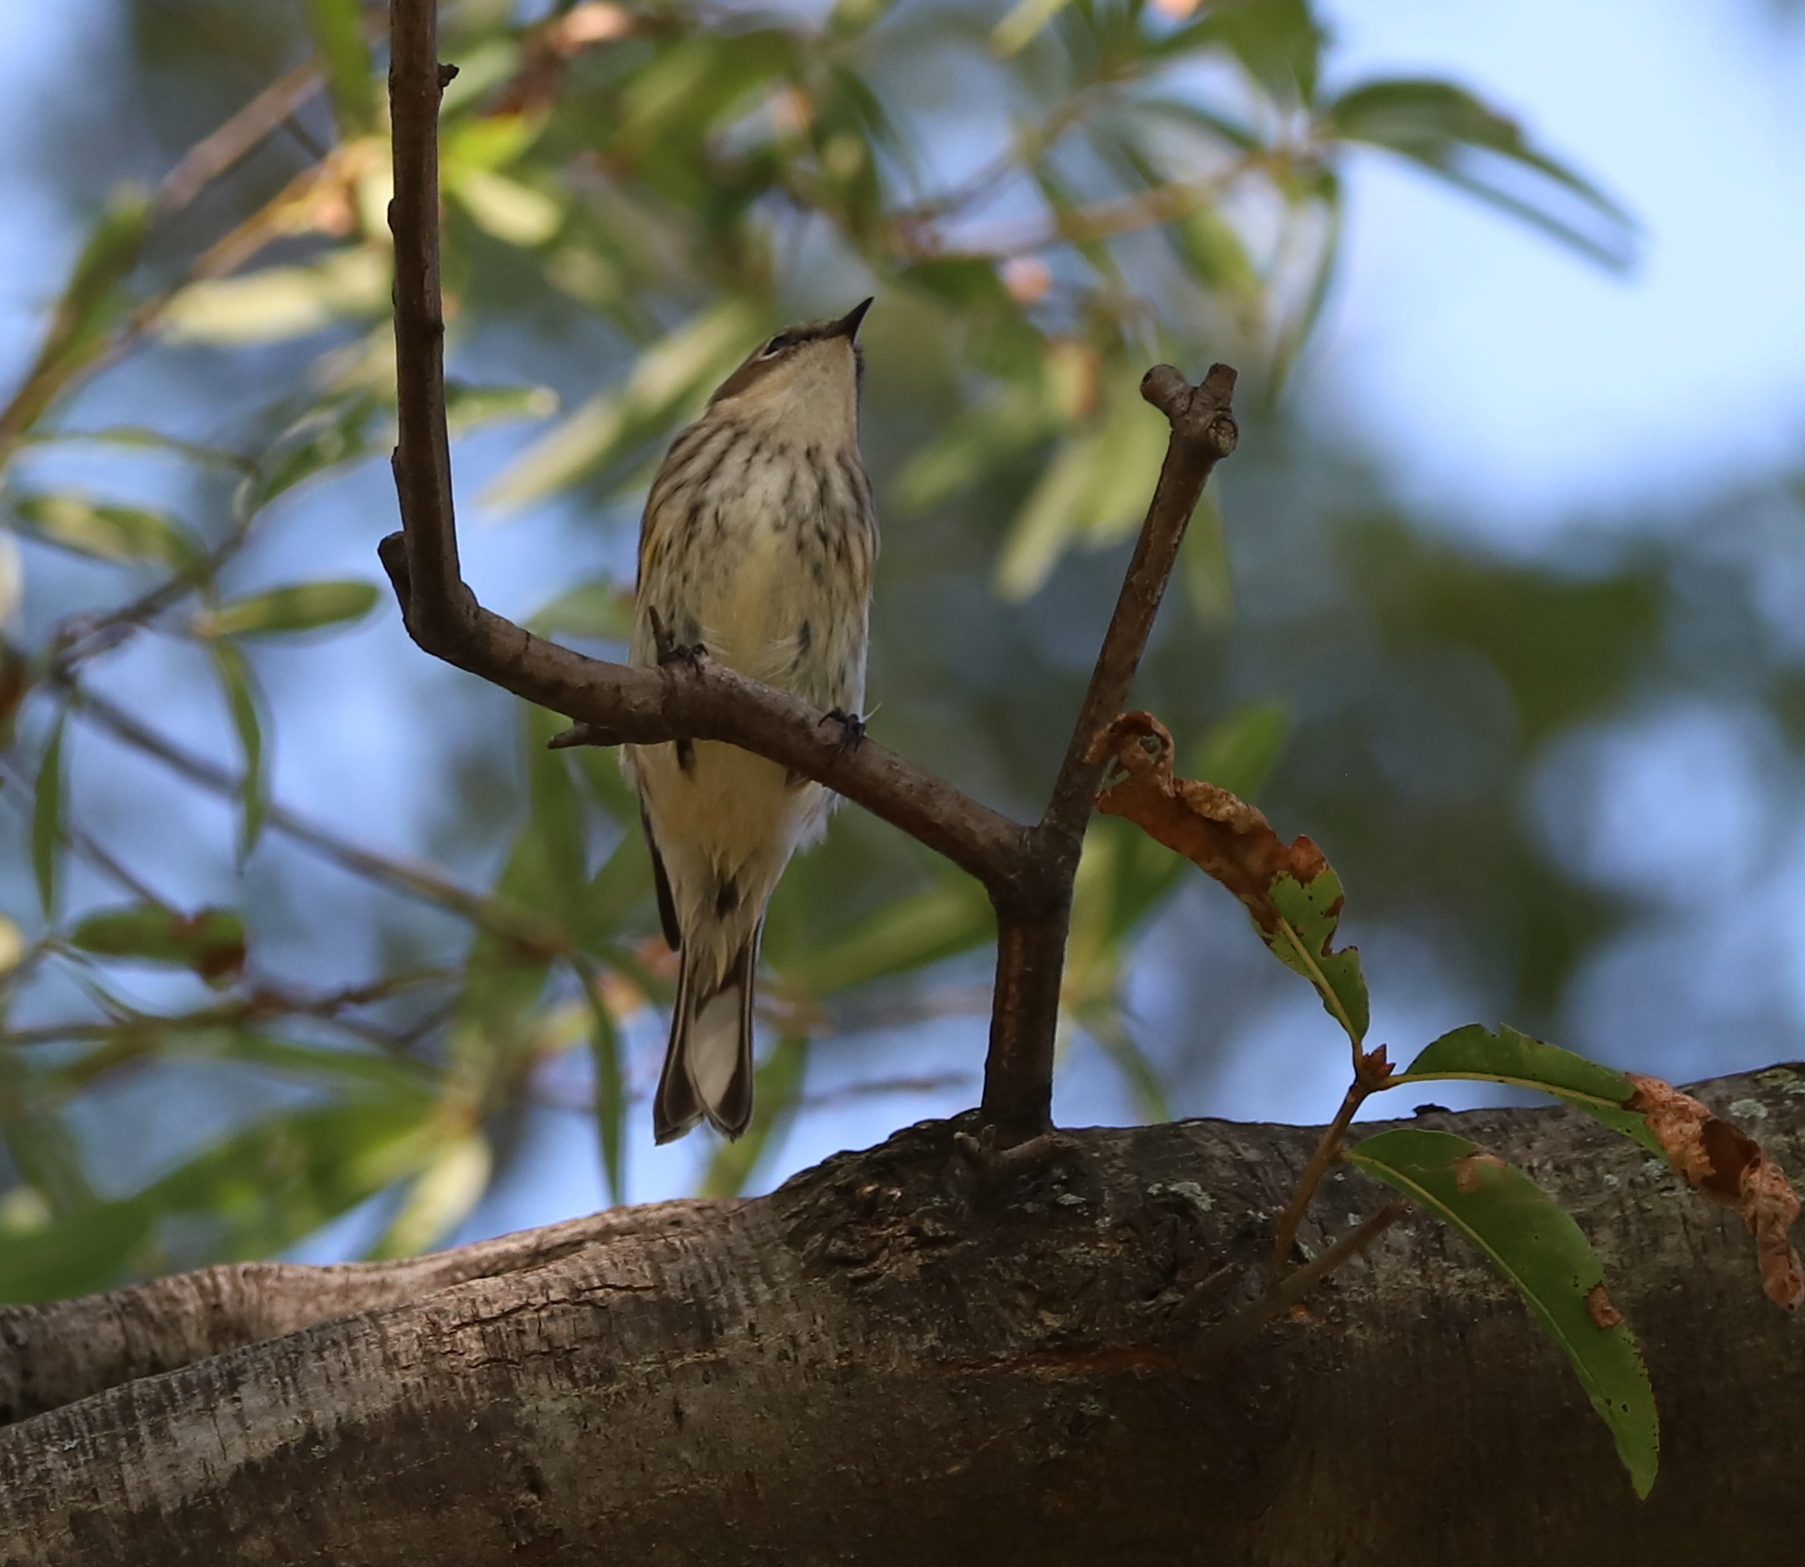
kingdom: Animalia
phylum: Chordata
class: Aves
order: Passeriformes
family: Parulidae
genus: Setophaga
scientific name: Setophaga coronata
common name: Myrtle warbler
